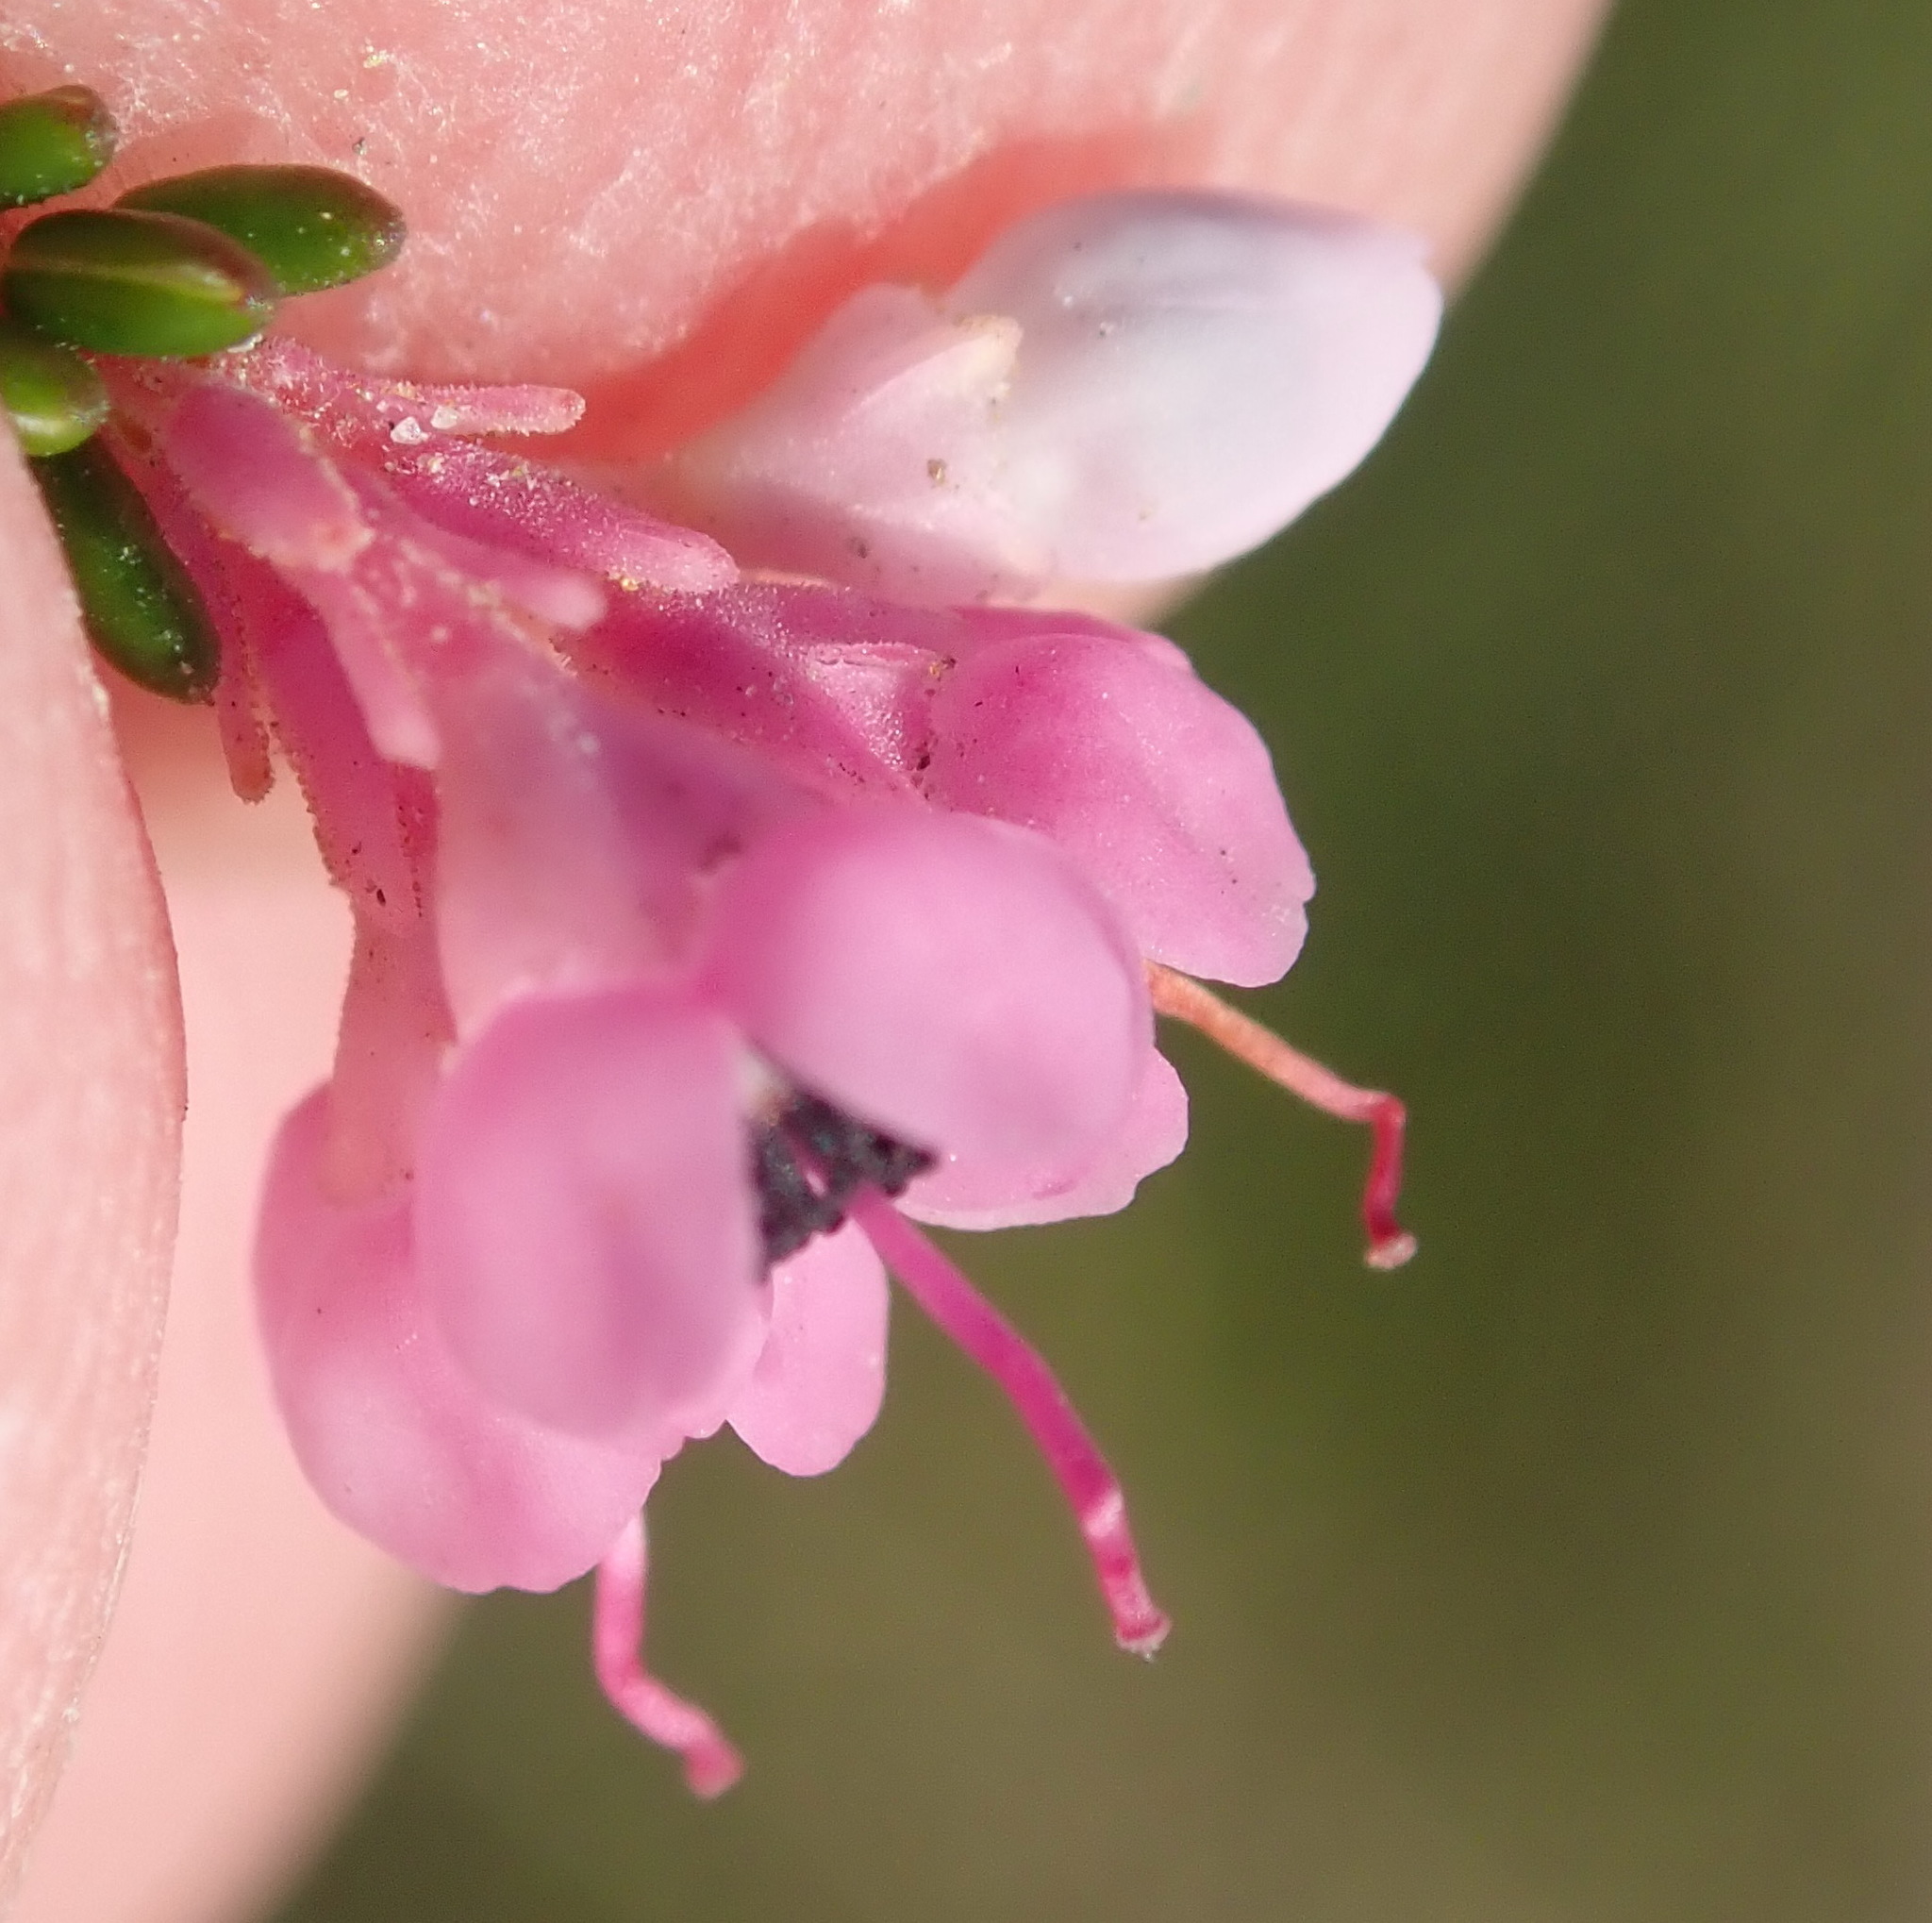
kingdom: Plantae
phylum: Tracheophyta
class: Magnoliopsida
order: Ericales
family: Ericaceae
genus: Erica
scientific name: Erica melanthera
